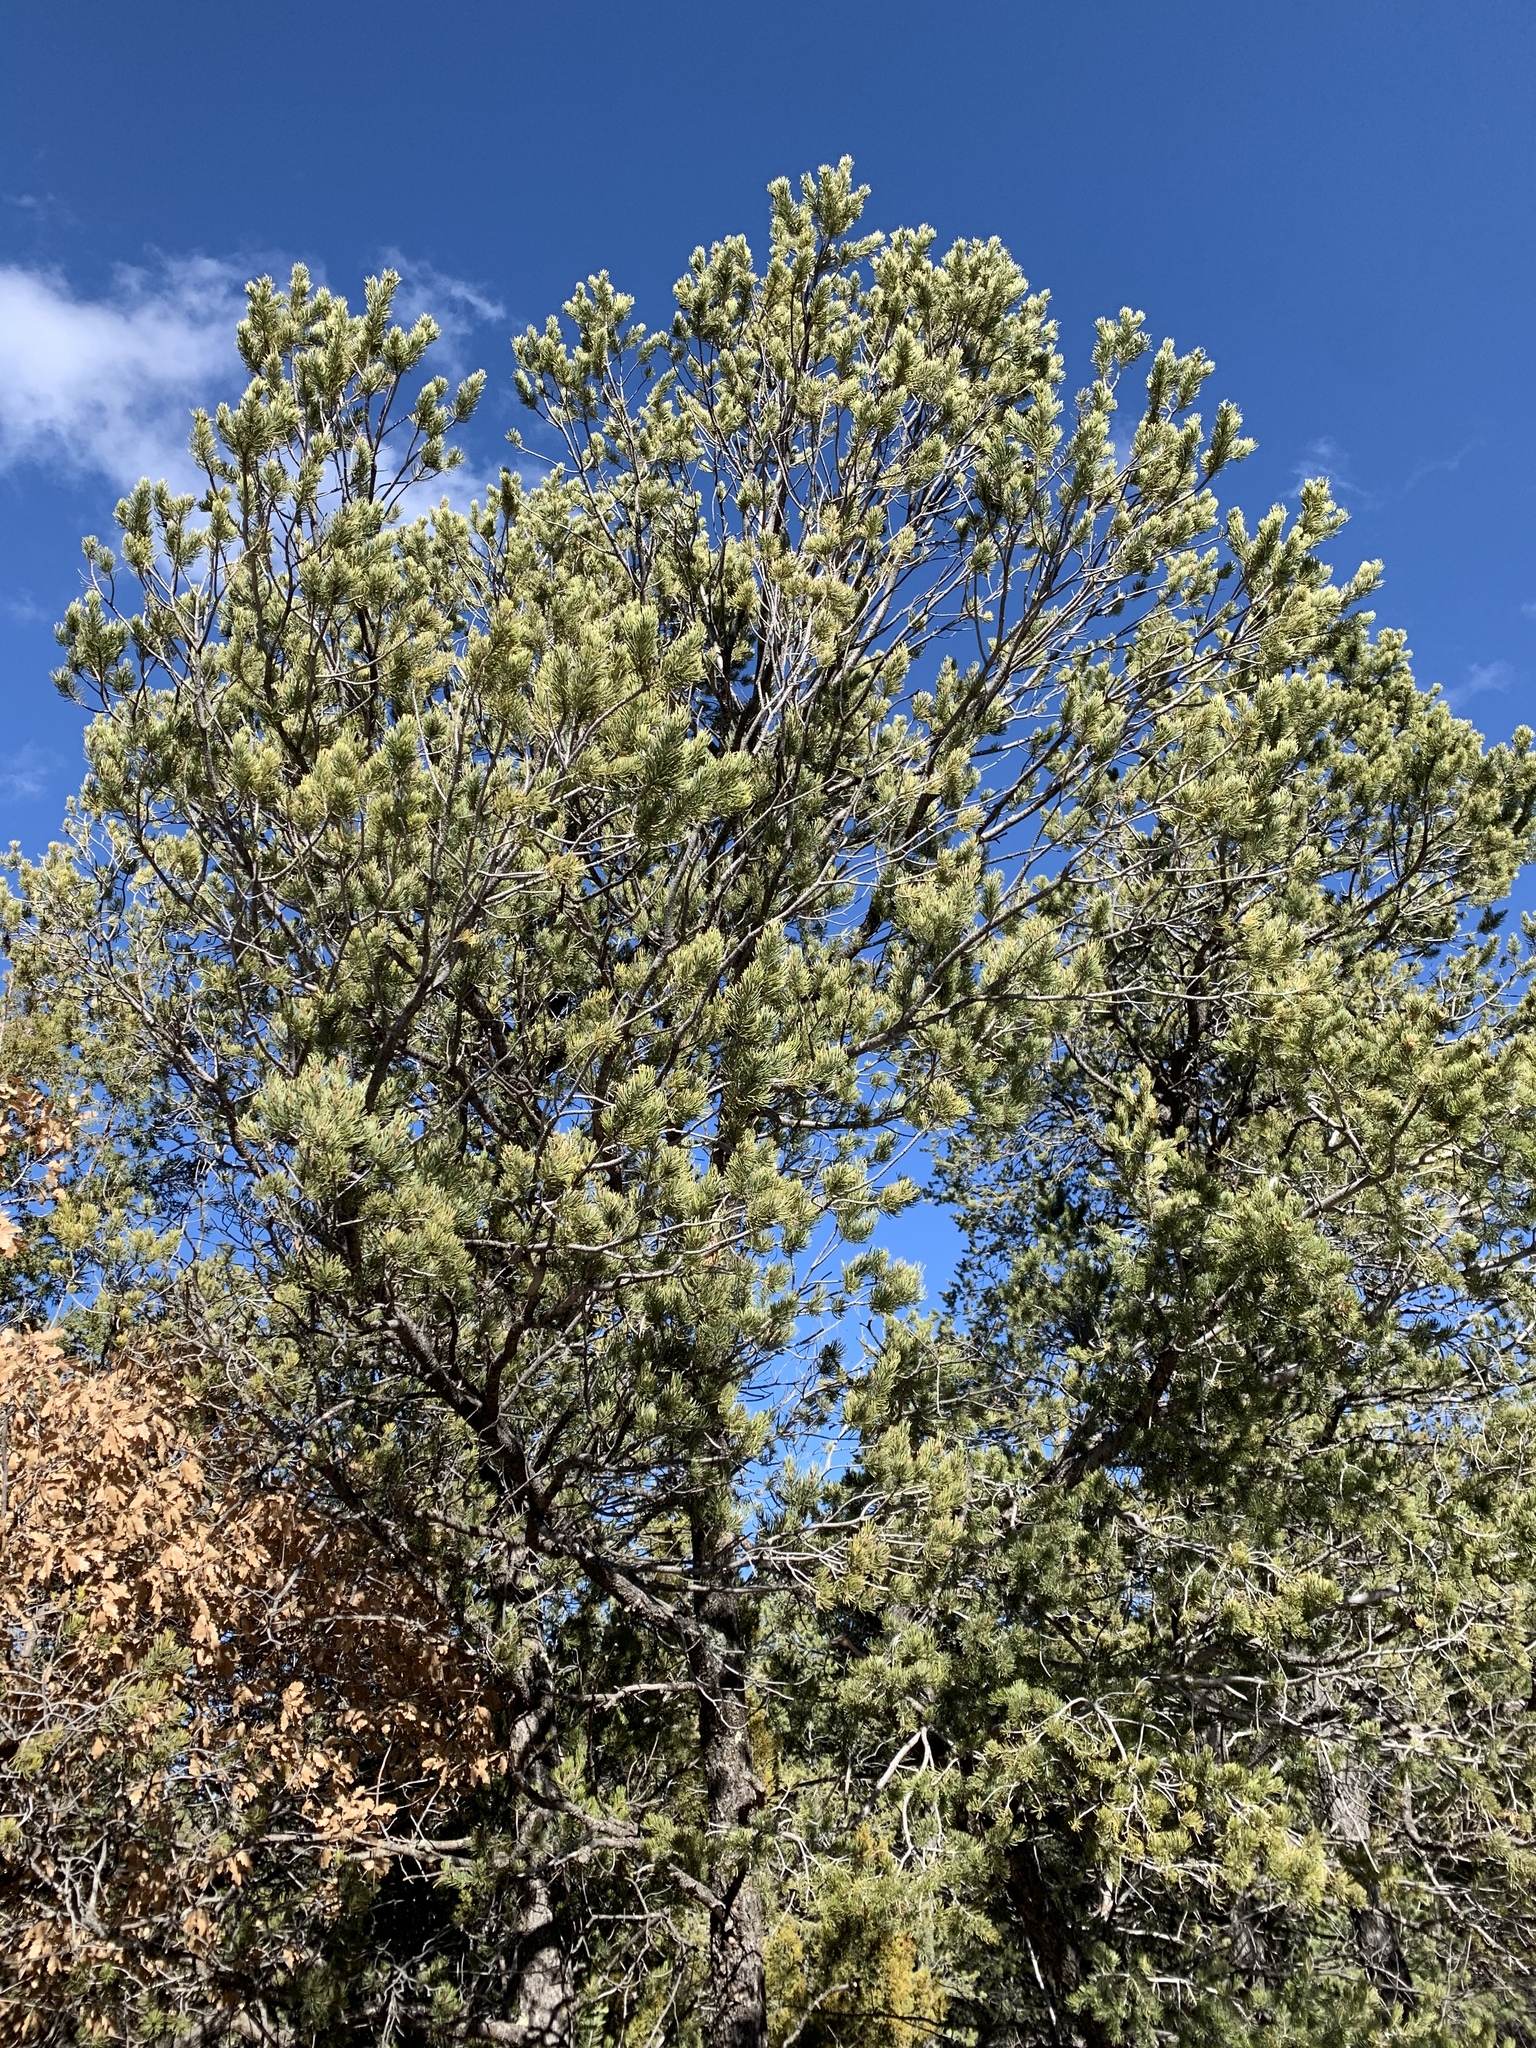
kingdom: Plantae
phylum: Tracheophyta
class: Pinopsida
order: Pinales
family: Pinaceae
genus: Pinus
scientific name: Pinus edulis
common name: Colorado pinyon
